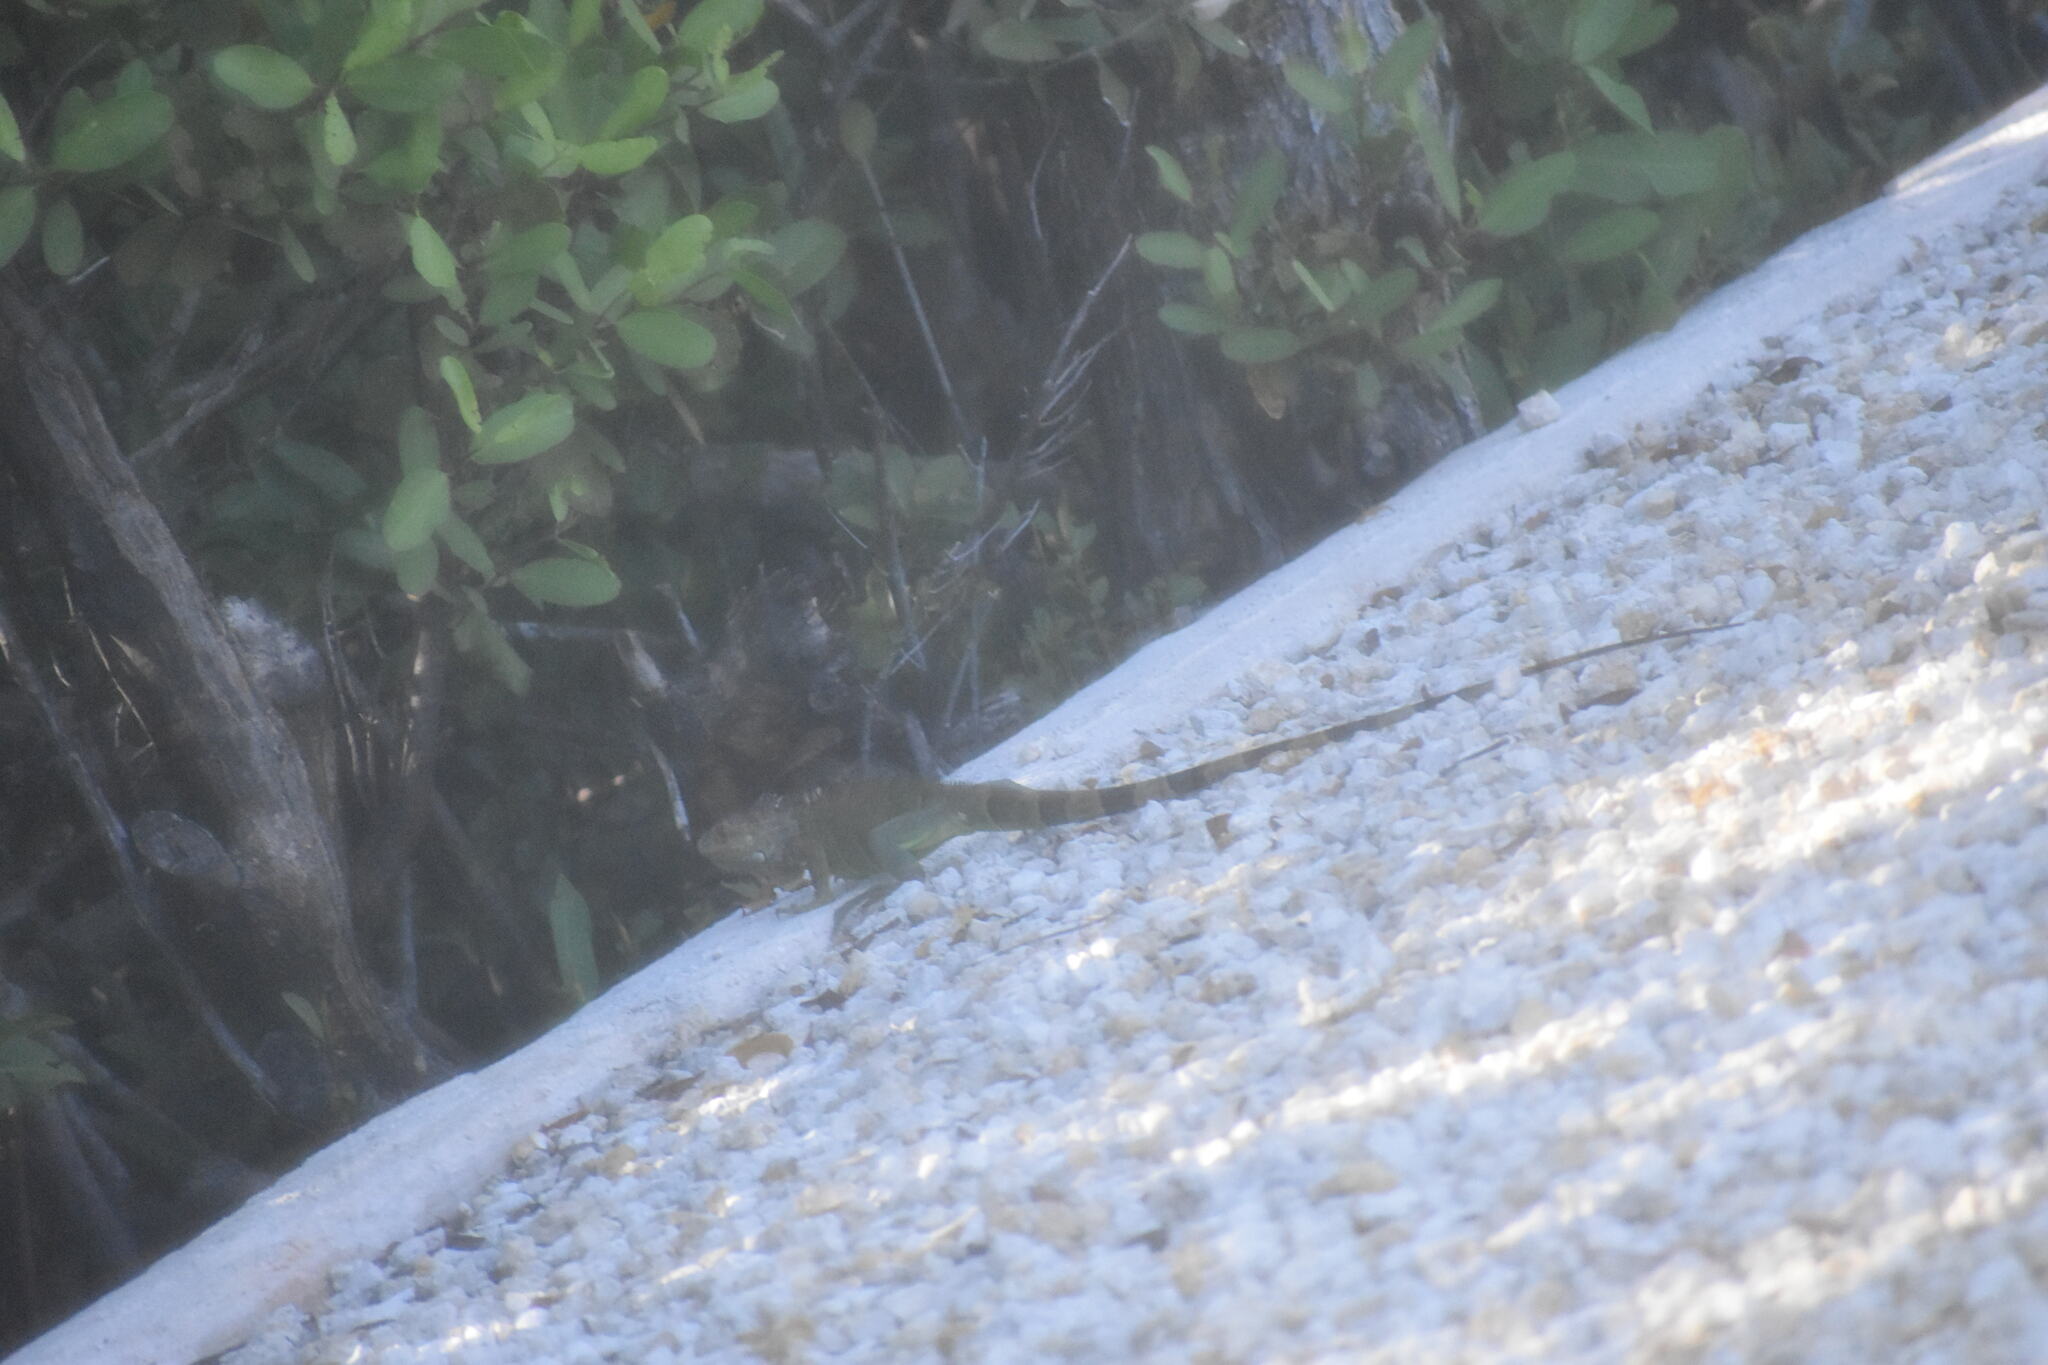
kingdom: Animalia
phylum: Chordata
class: Squamata
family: Iguanidae
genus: Iguana
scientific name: Iguana iguana
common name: Green iguana
